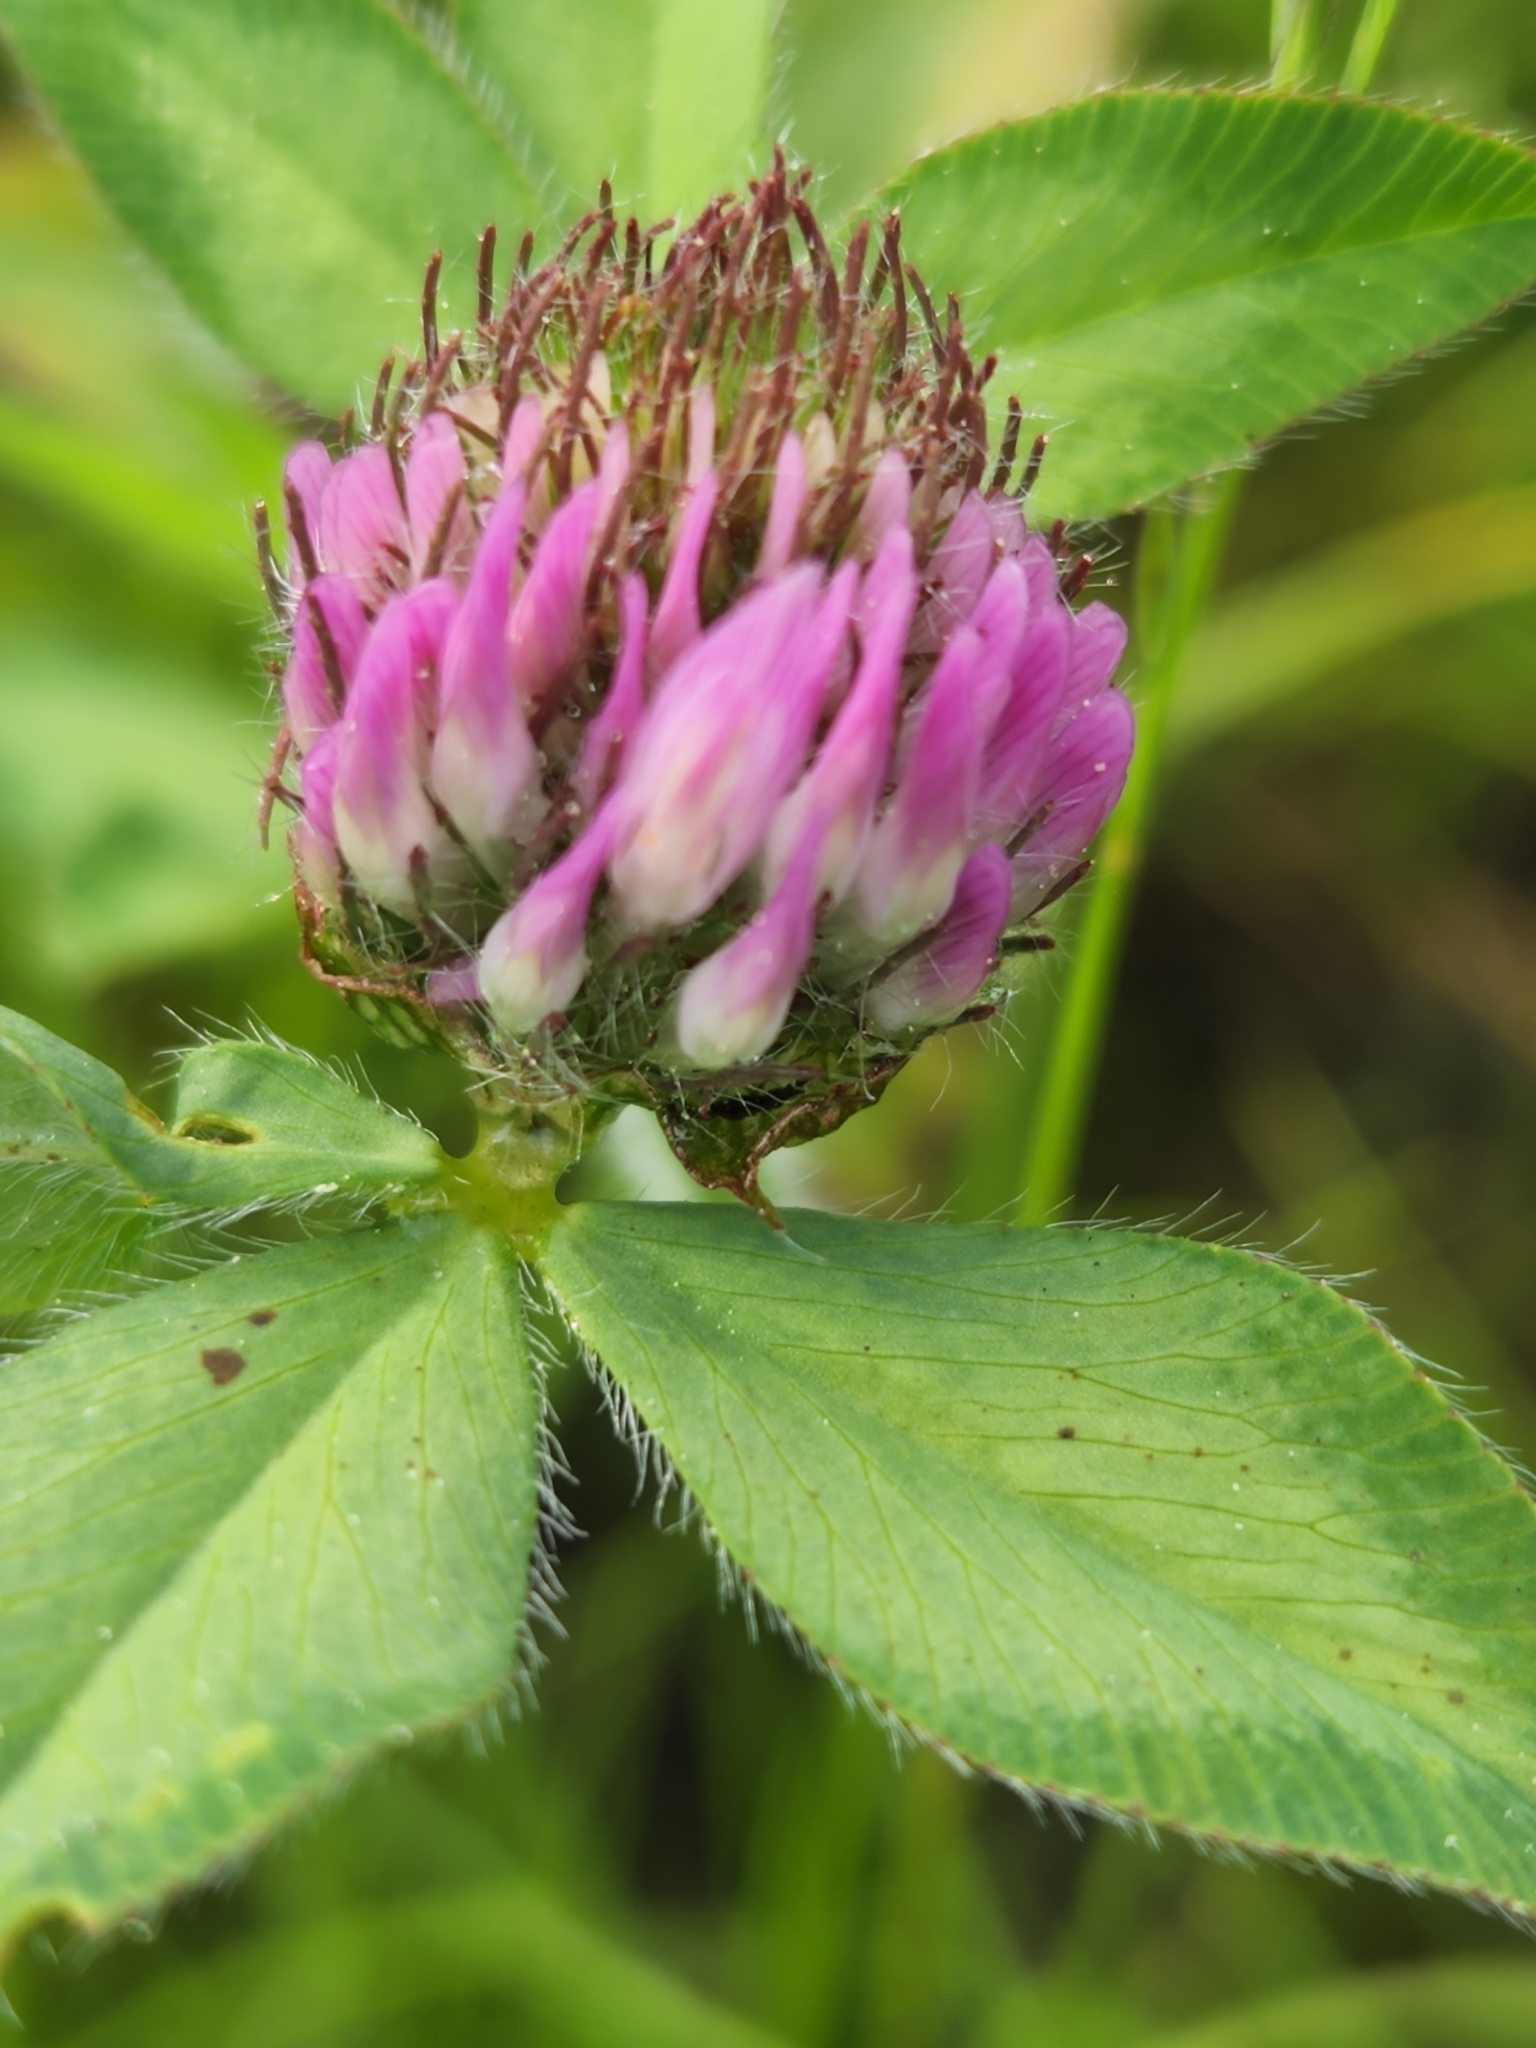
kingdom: Plantae
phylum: Tracheophyta
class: Magnoliopsida
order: Fabales
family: Fabaceae
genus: Trifolium
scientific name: Trifolium pratense
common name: Red clover
